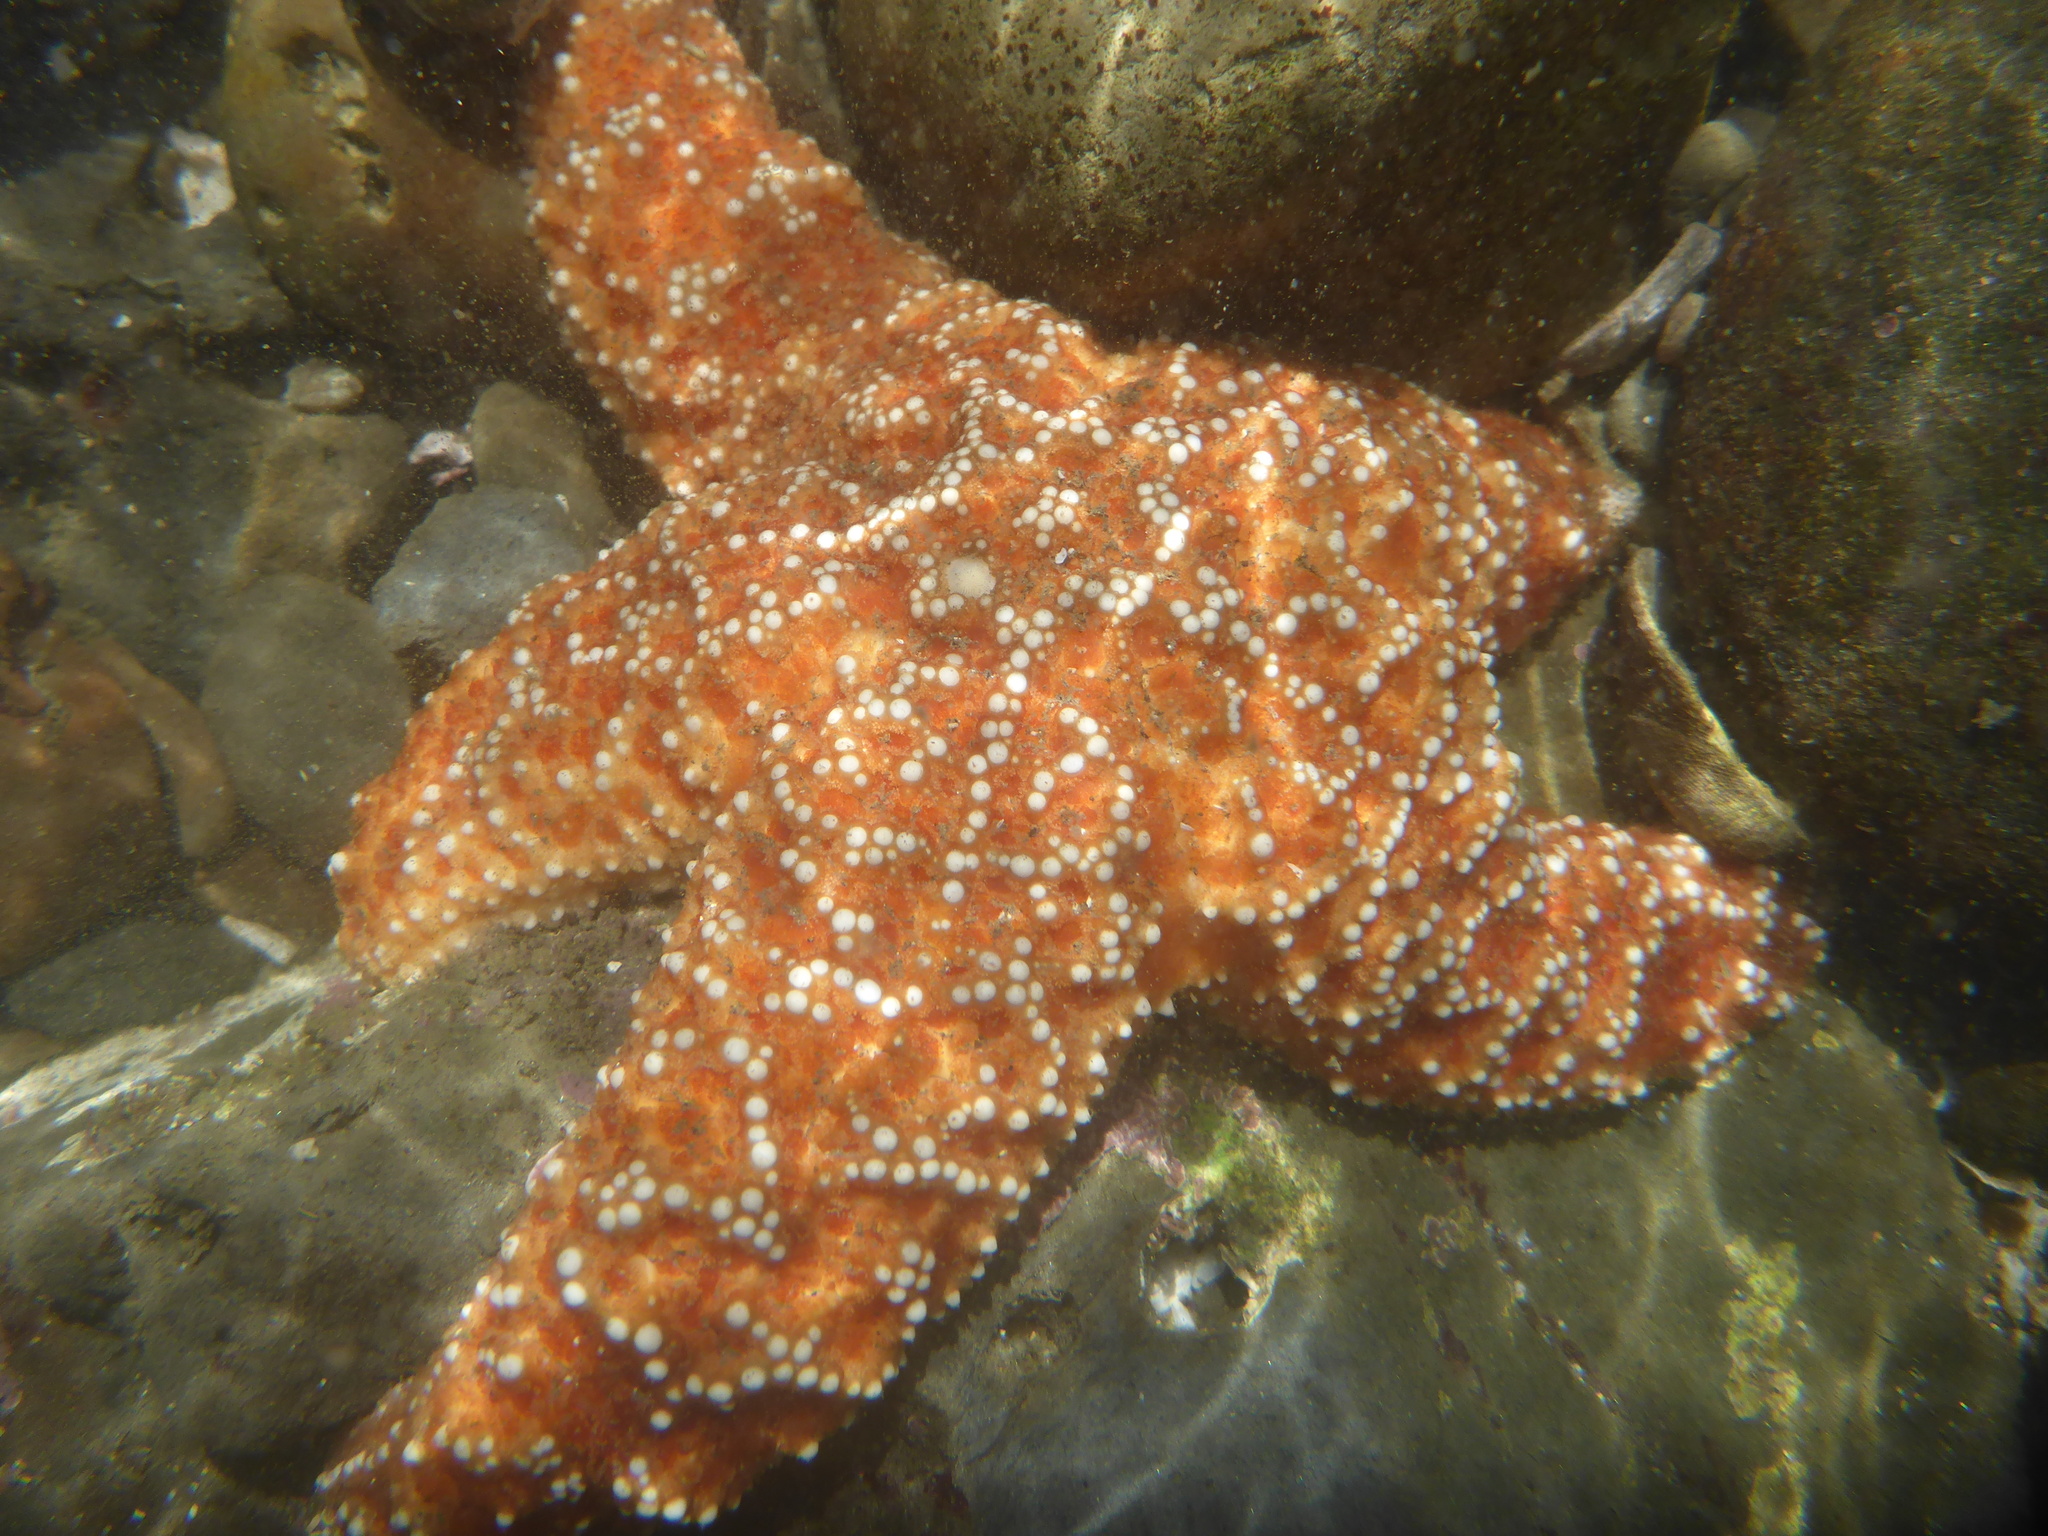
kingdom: Animalia
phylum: Echinodermata
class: Asteroidea
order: Forcipulatida
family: Asteriidae
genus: Pisaster
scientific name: Pisaster ochraceus
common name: Ochre stars
